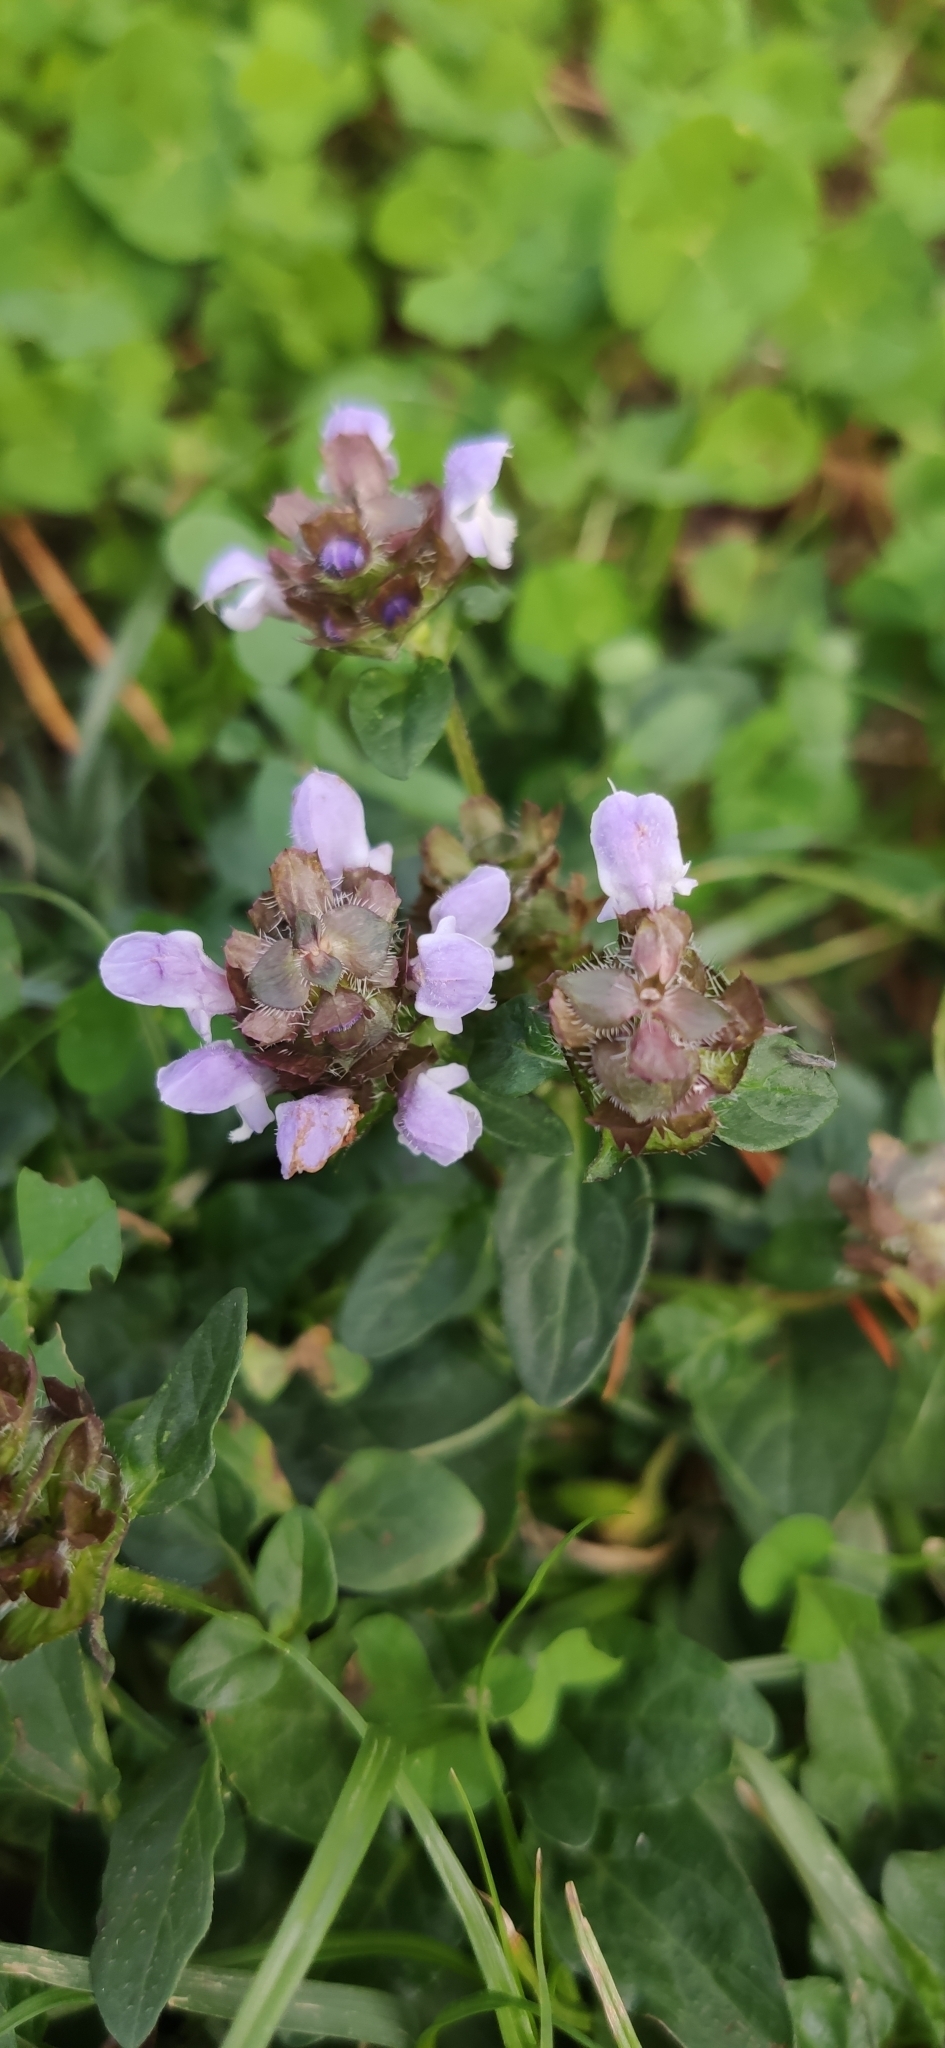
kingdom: Plantae
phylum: Tracheophyta
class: Magnoliopsida
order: Lamiales
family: Lamiaceae
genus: Prunella
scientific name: Prunella vulgaris
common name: Heal-all
